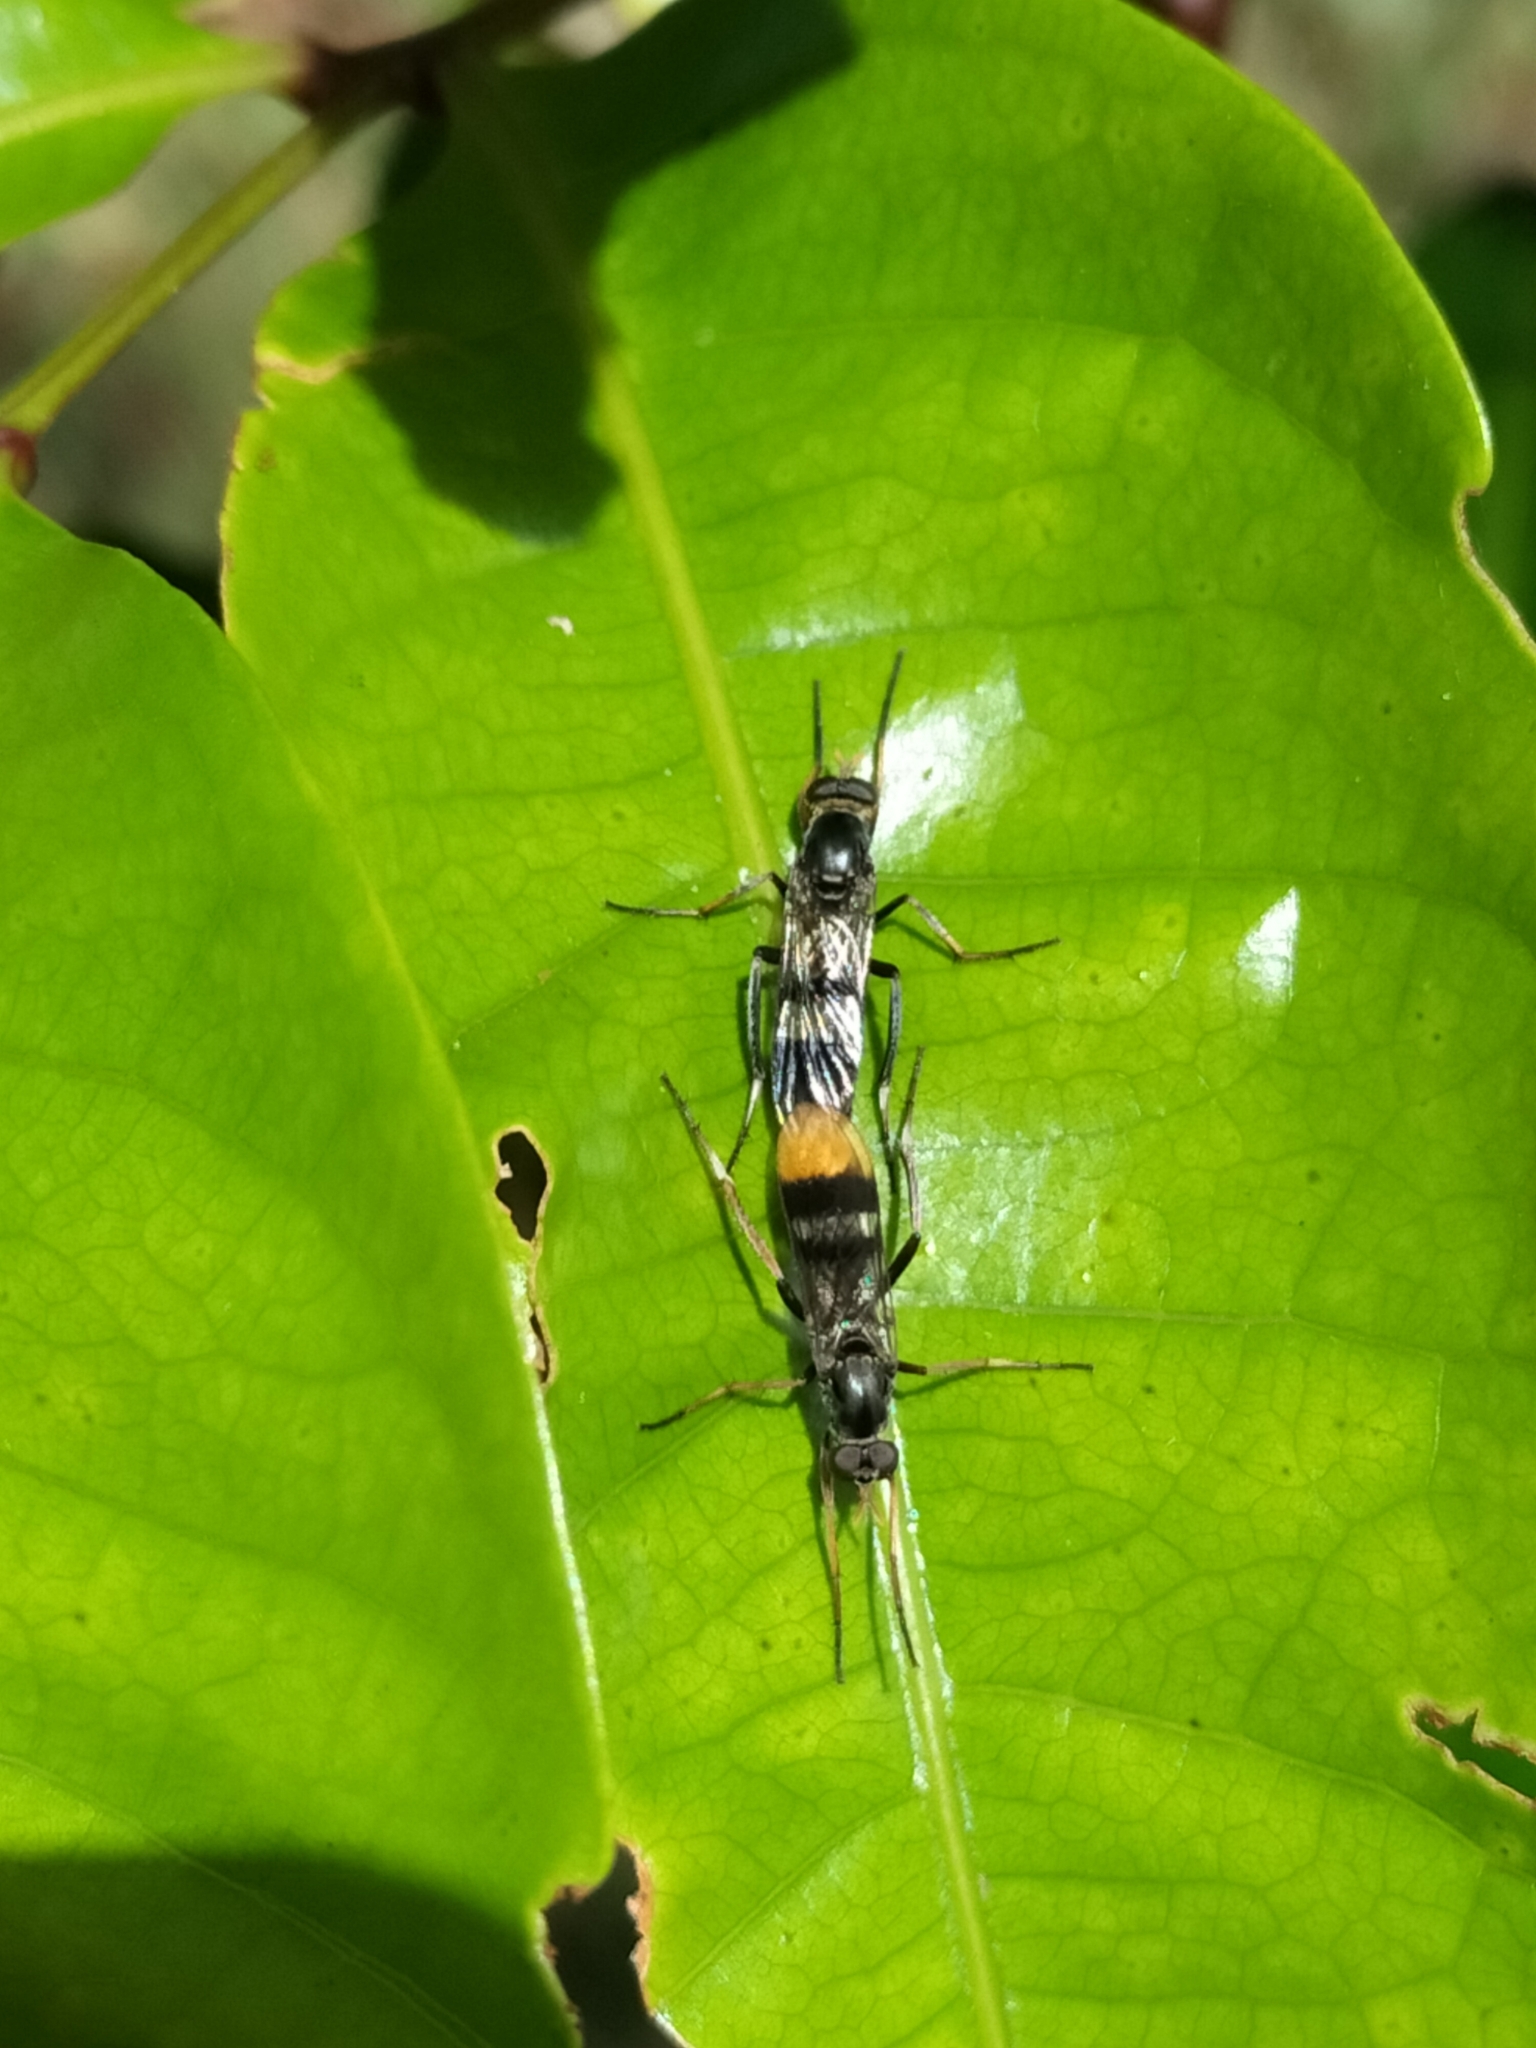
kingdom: Animalia
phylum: Arthropoda
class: Insecta
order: Diptera
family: Therevidae
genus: Ectinorhynchus
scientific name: Ectinorhynchus pyrrhotelus
